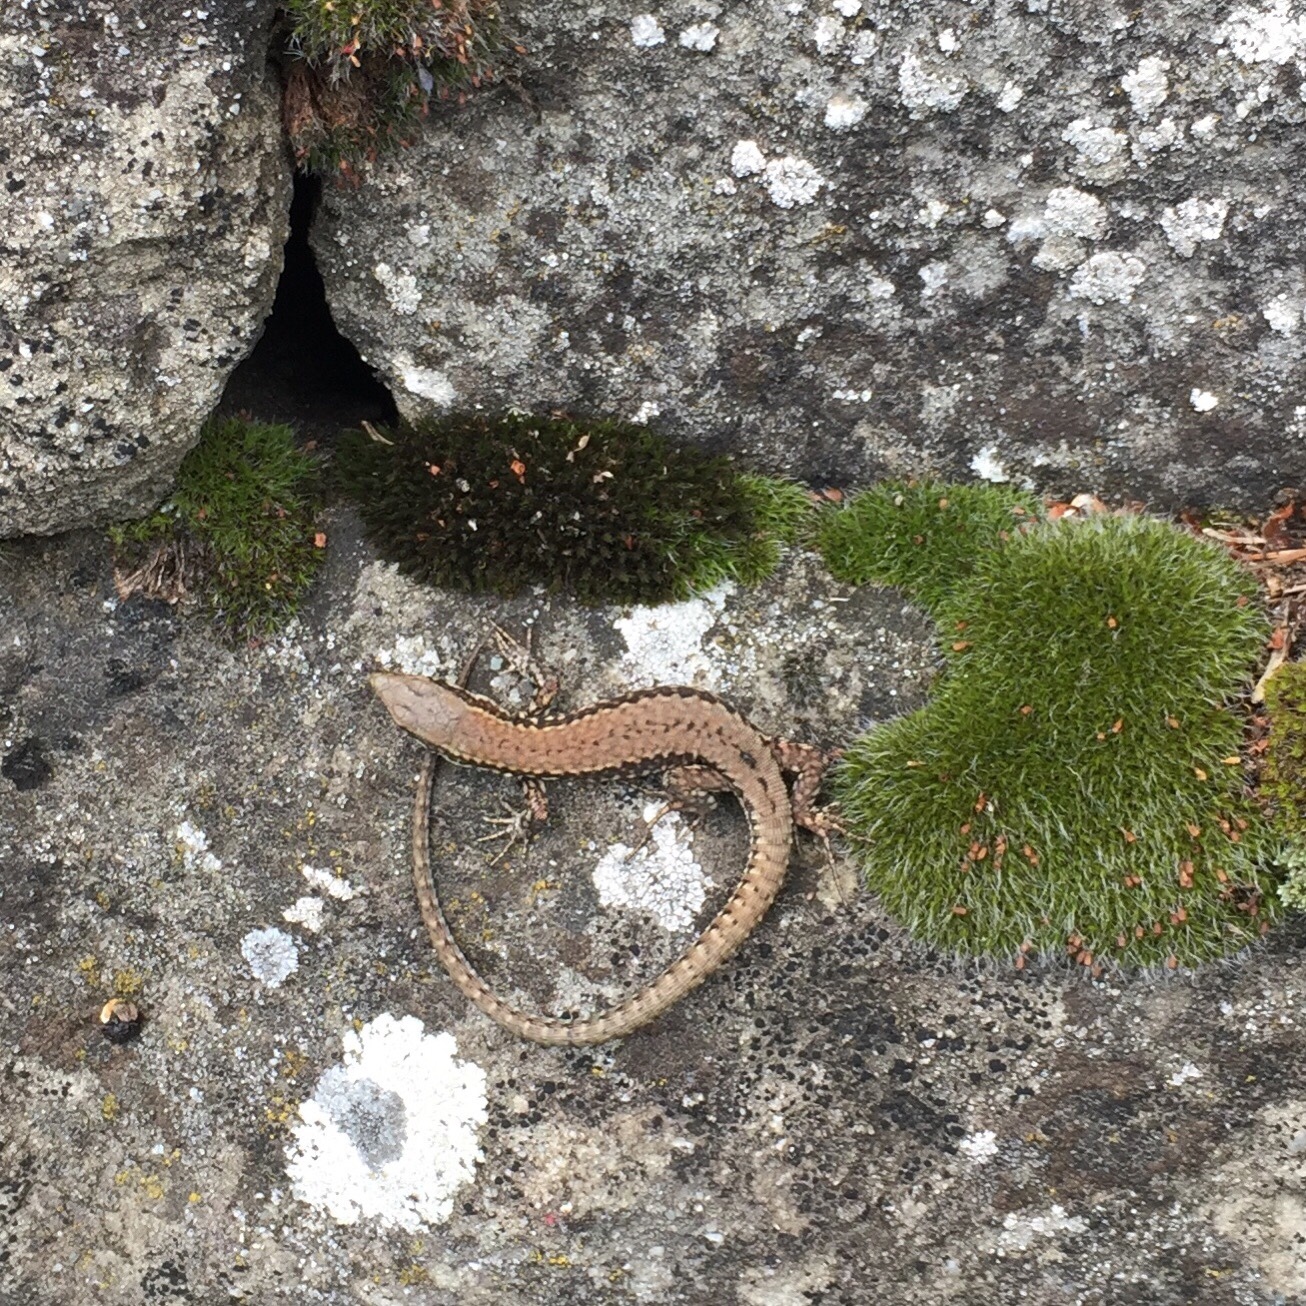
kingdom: Animalia
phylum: Chordata
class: Squamata
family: Lacertidae
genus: Podarcis
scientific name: Podarcis muralis
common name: Common wall lizard
